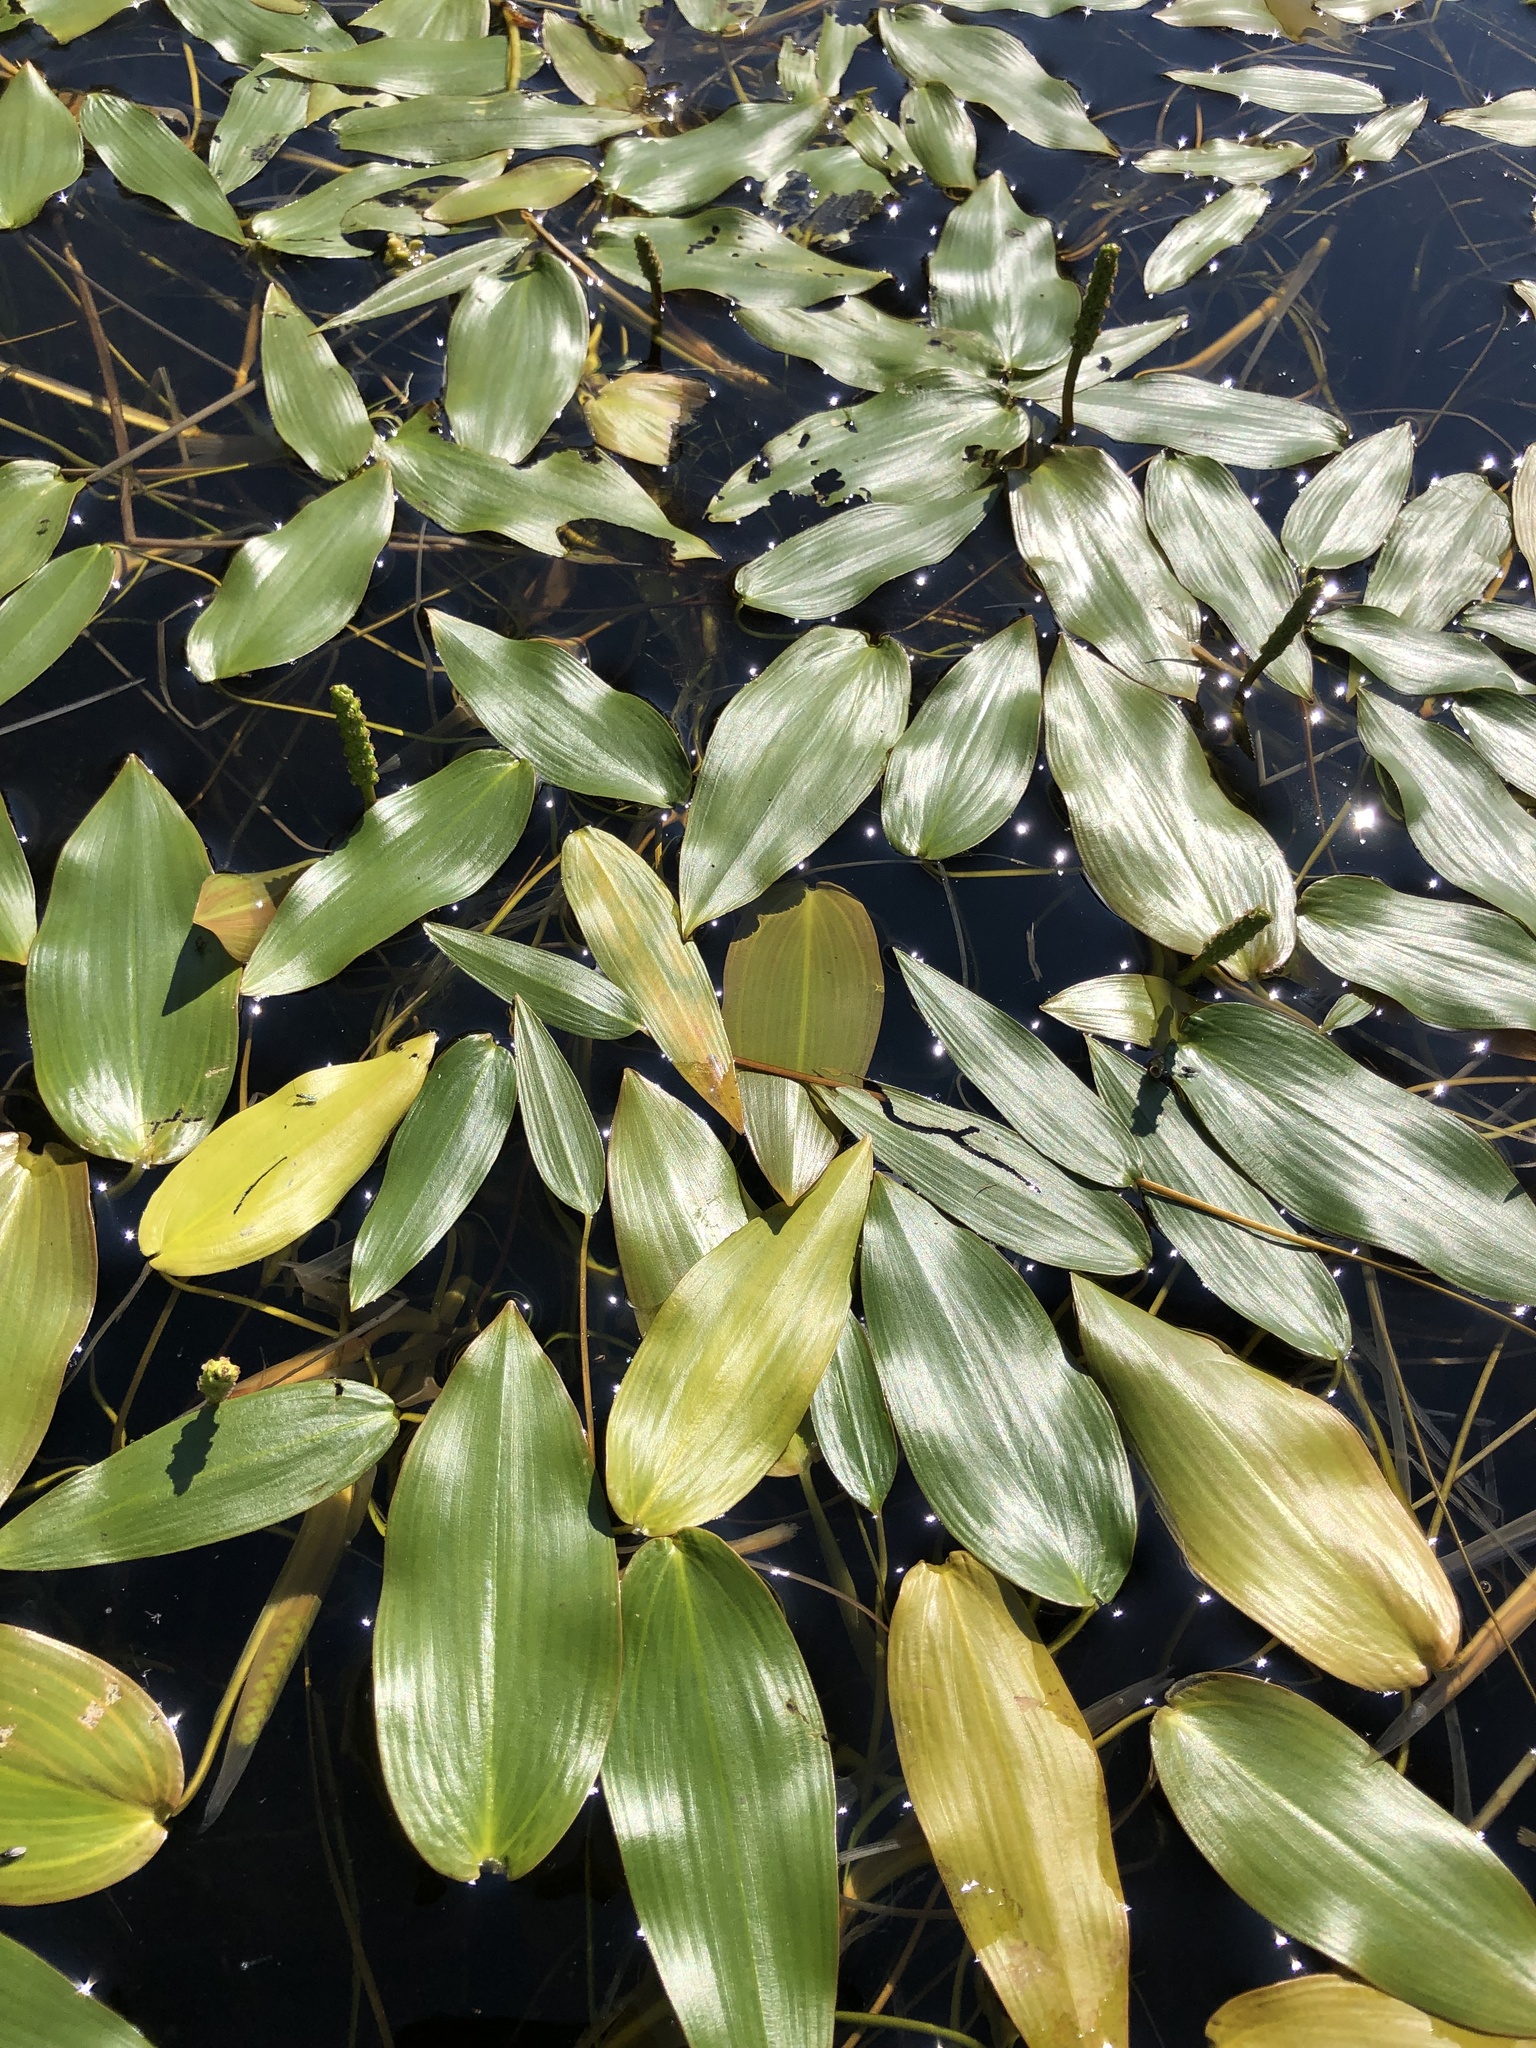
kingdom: Plantae
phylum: Tracheophyta
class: Liliopsida
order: Alismatales
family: Potamogetonaceae
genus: Potamogeton
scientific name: Potamogeton natans
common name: Broad-leaved pondweed
